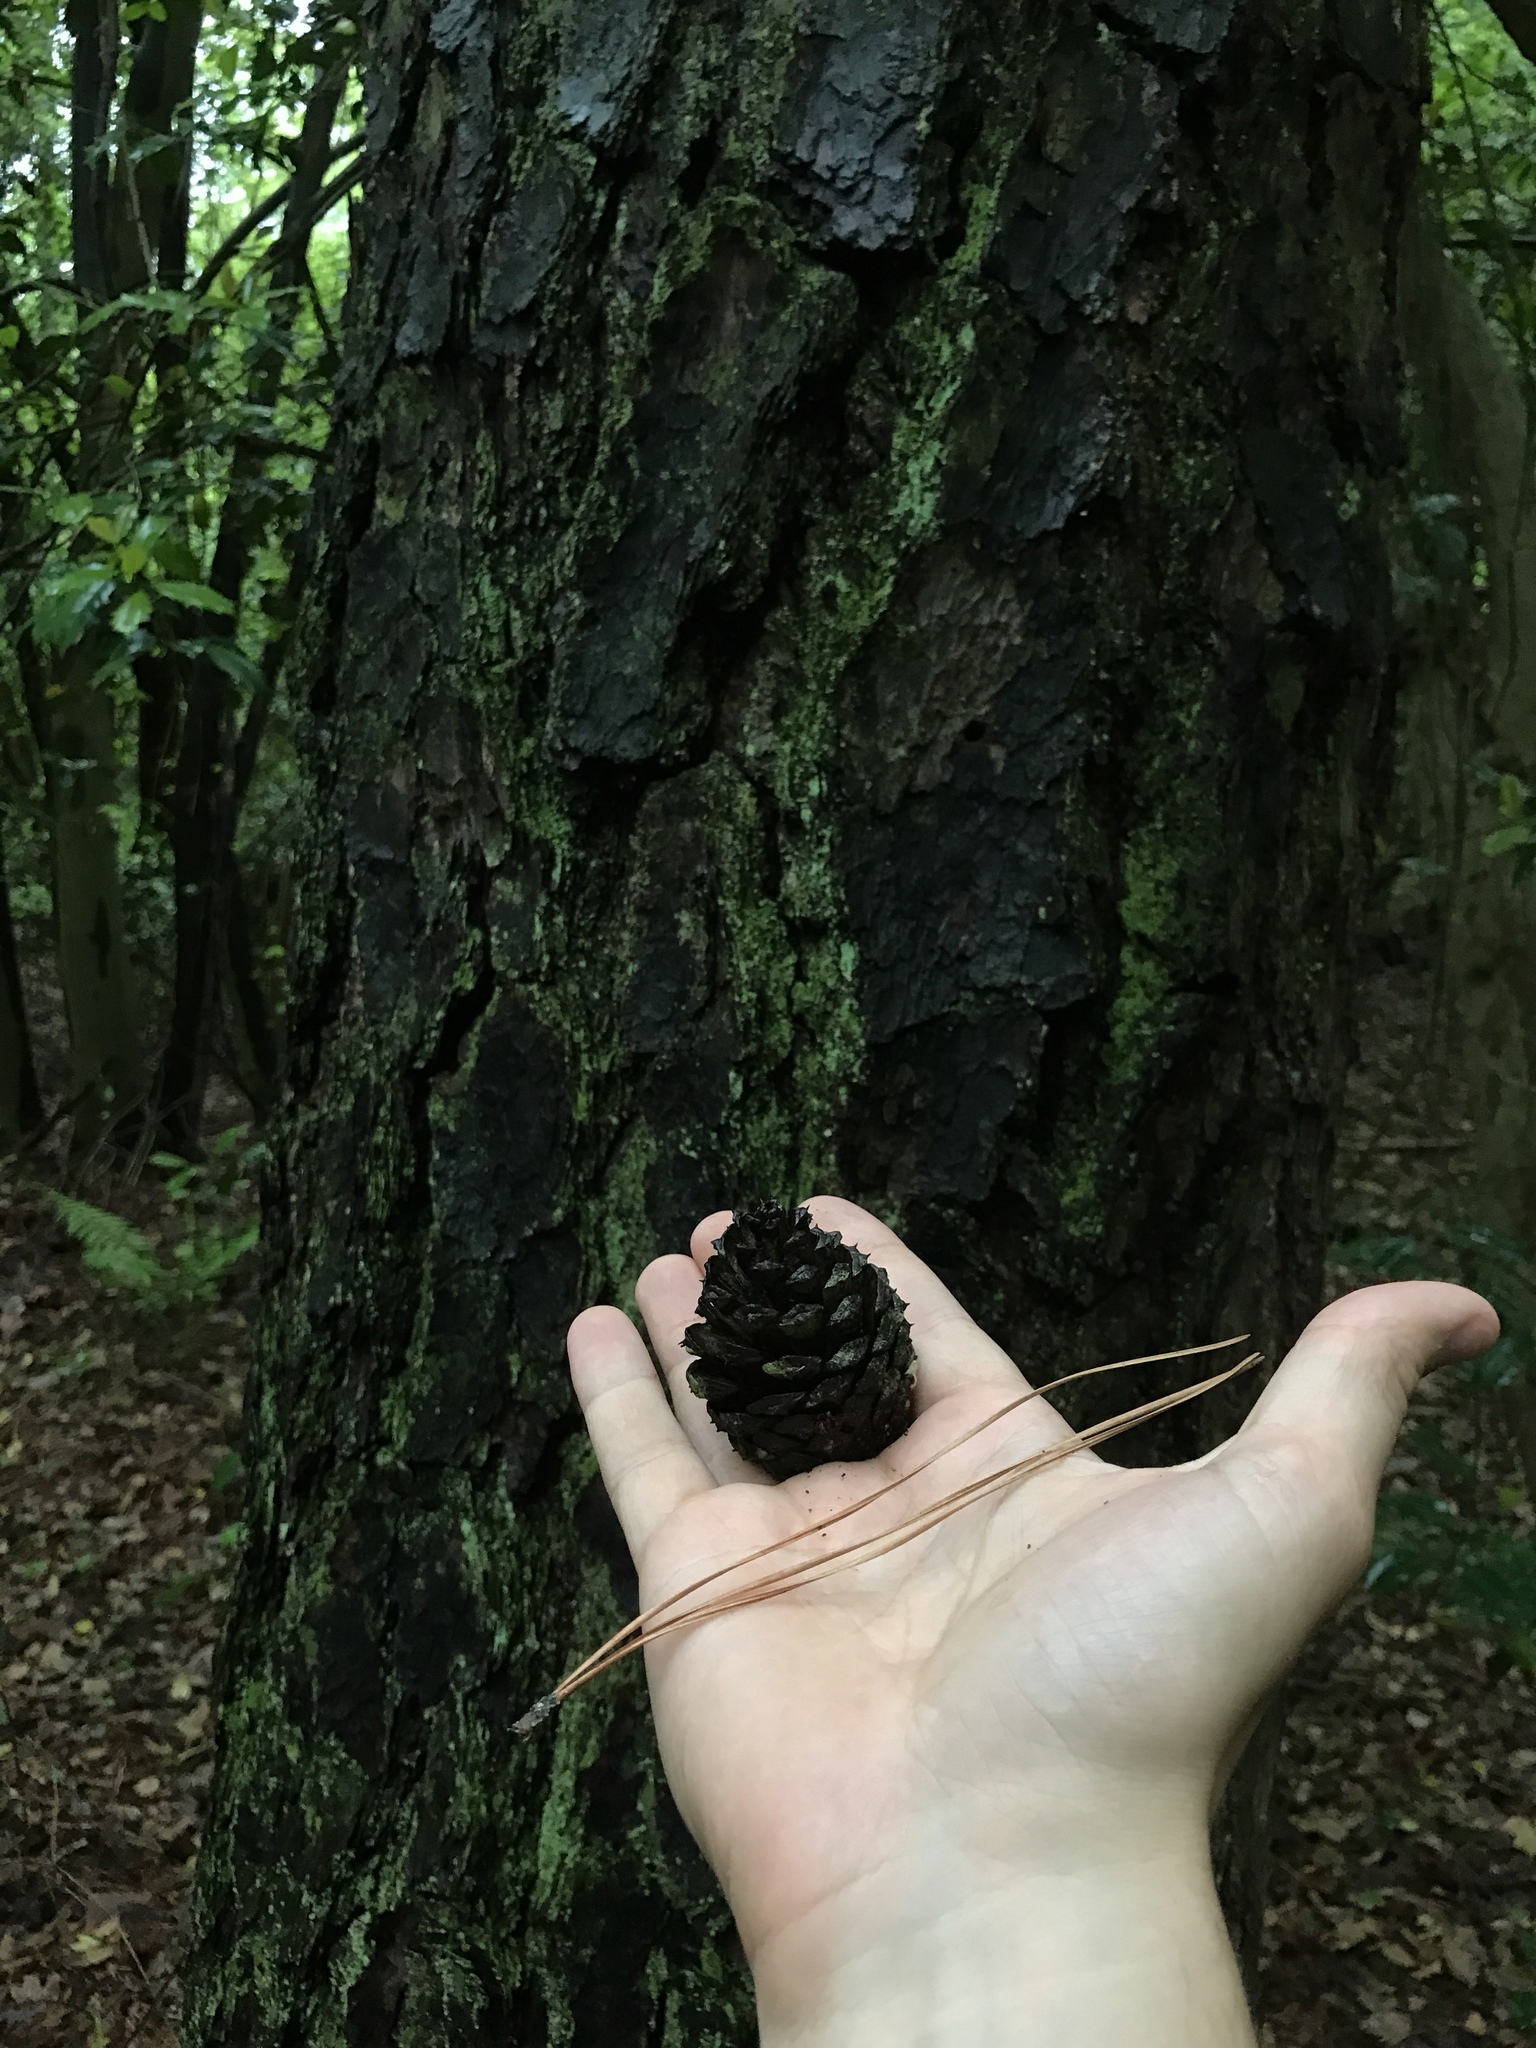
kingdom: Plantae
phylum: Tracheophyta
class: Pinopsida
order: Pinales
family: Pinaceae
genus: Pinus
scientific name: Pinus rigida
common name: Pitch pine
